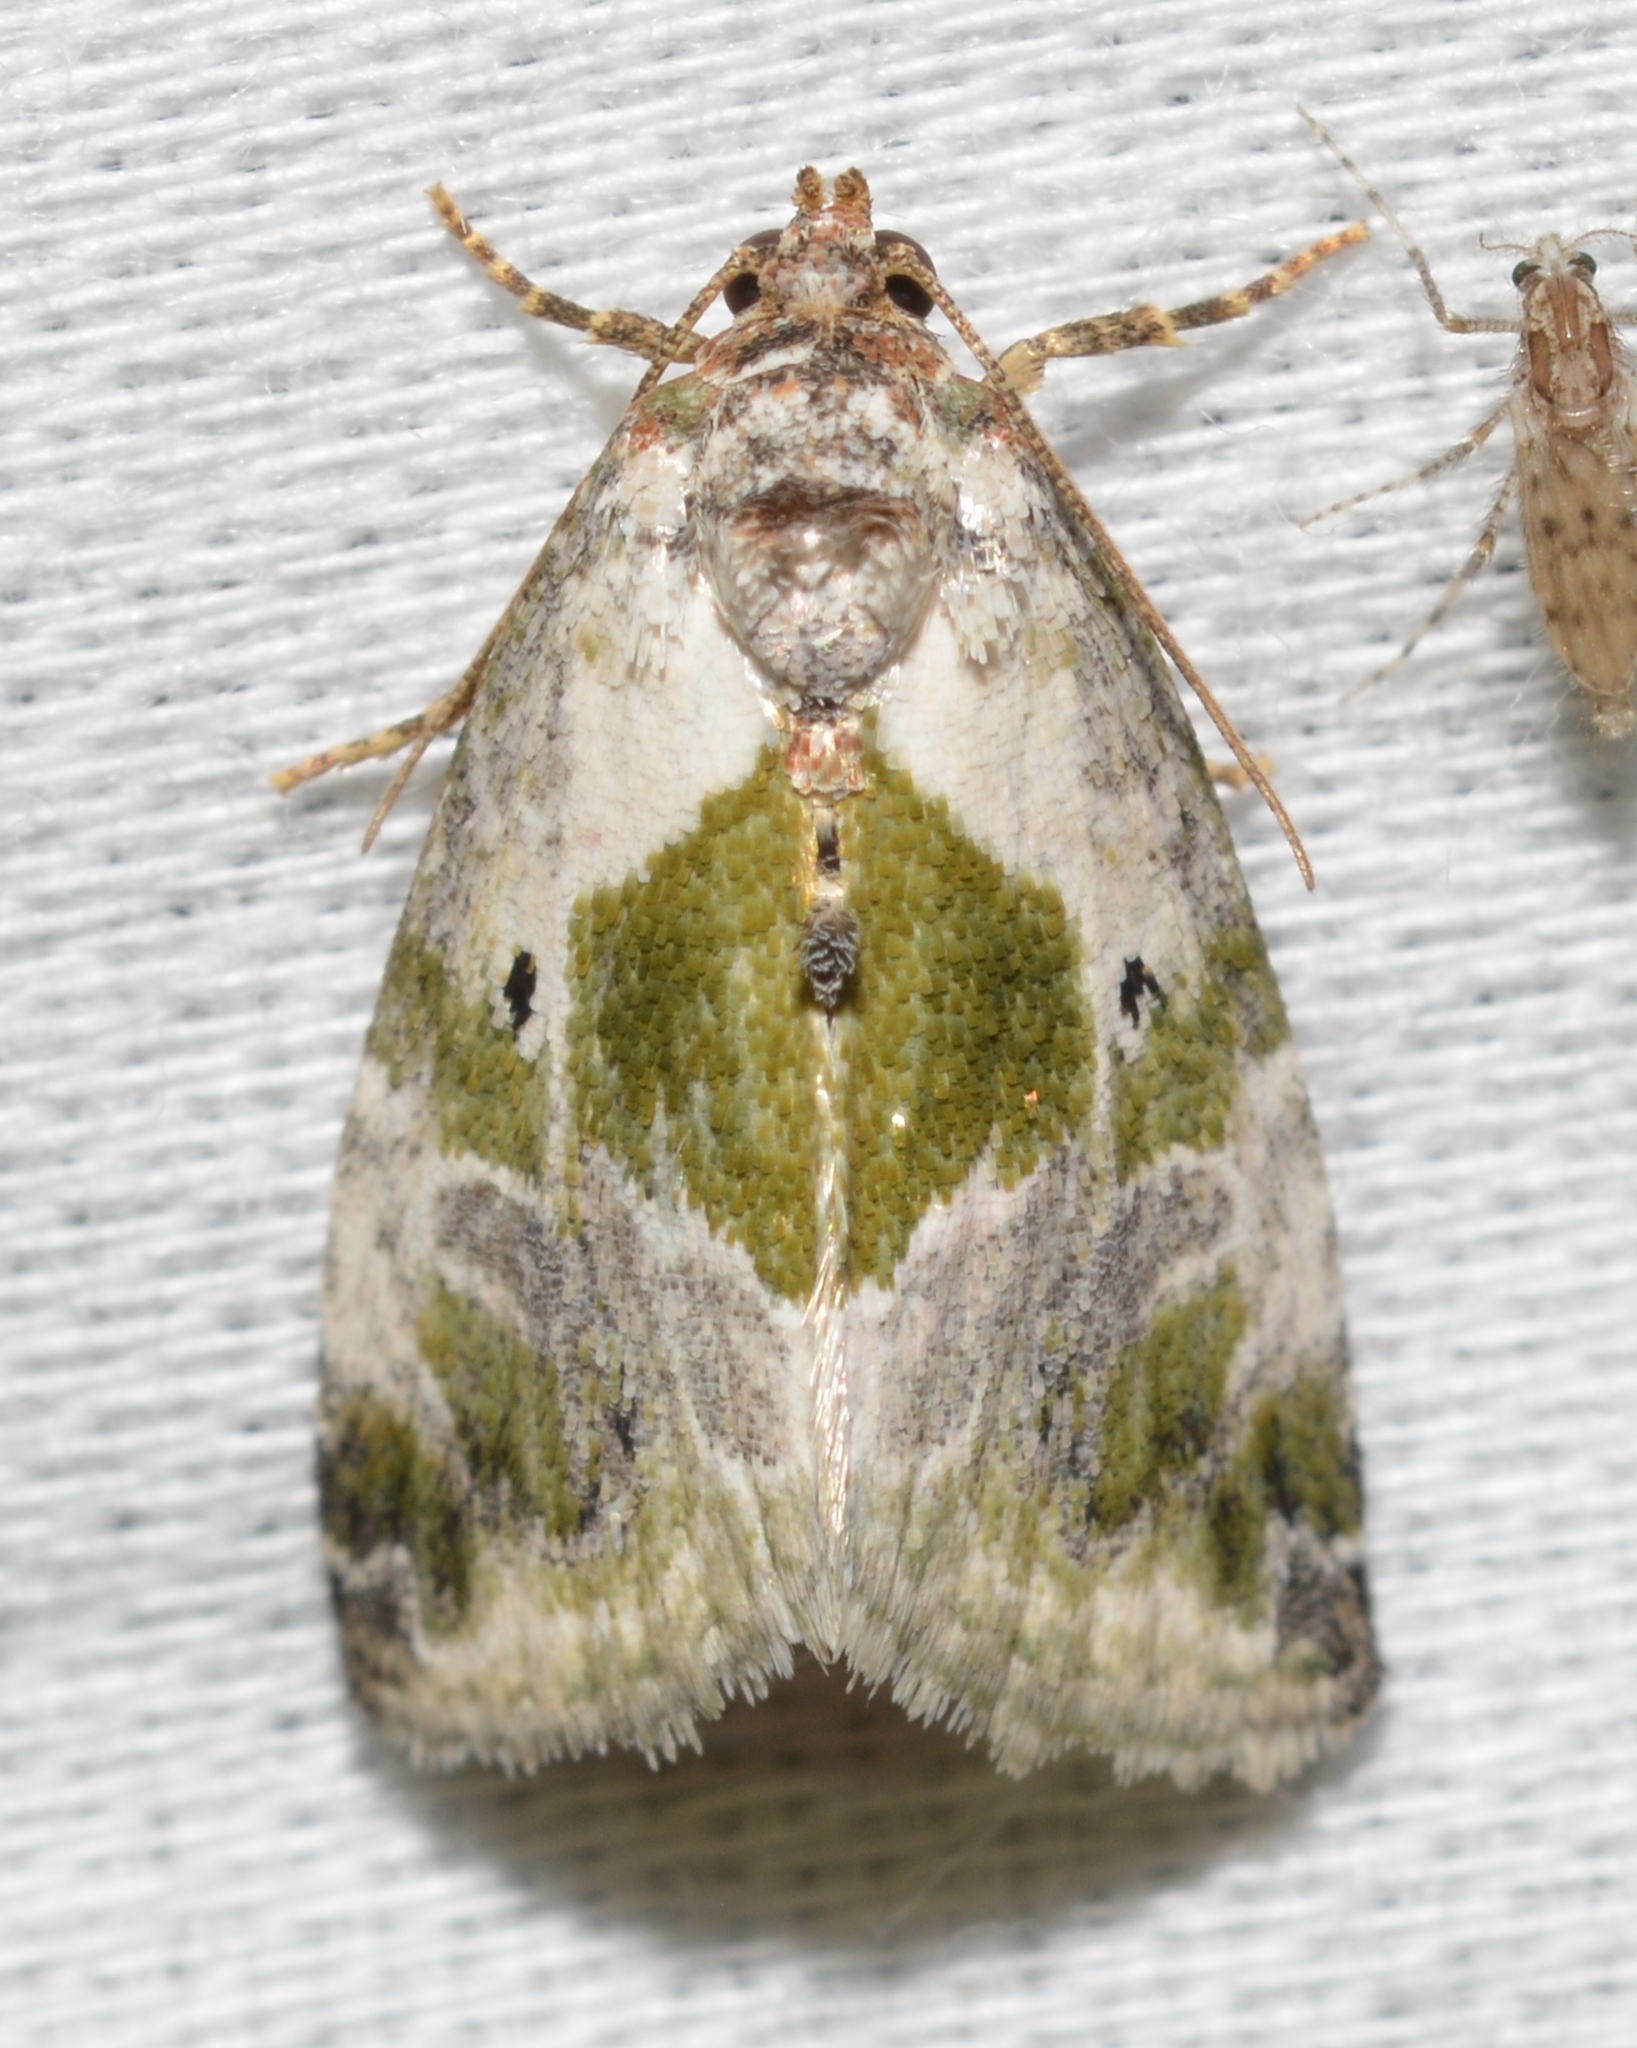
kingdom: Animalia
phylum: Arthropoda
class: Insecta
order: Lepidoptera
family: Noctuidae
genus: Maliattha
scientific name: Maliattha synochitis
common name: Black-dotted glyph
